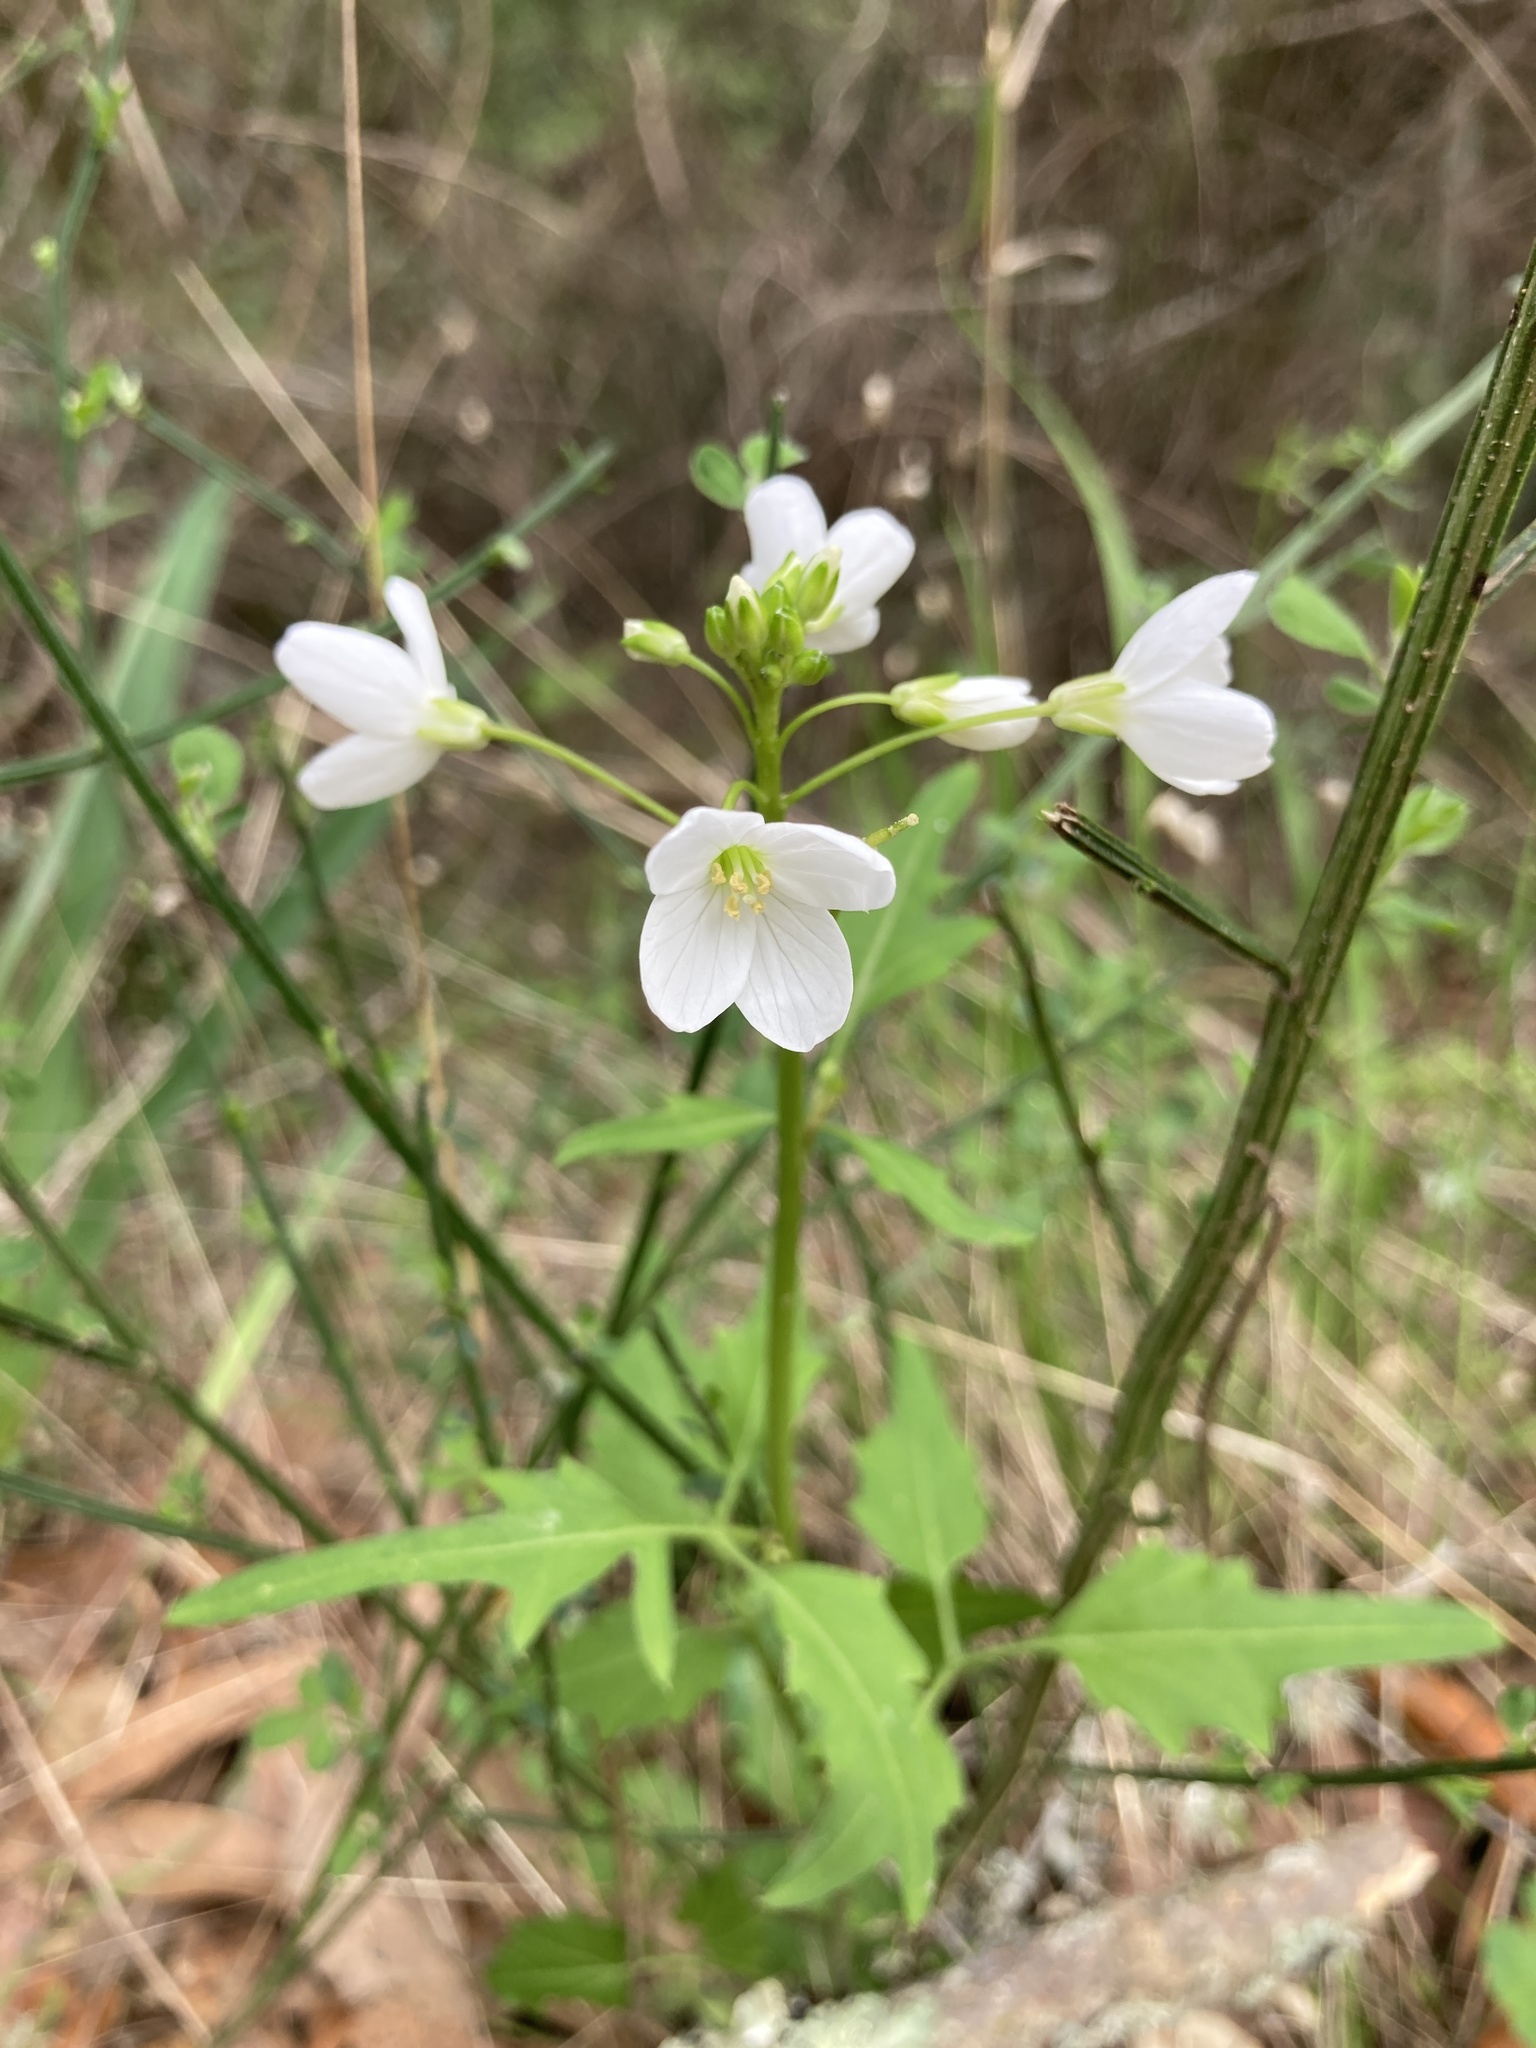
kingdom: Plantae
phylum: Tracheophyta
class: Magnoliopsida
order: Brassicales
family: Brassicaceae
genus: Cardamine
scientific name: Cardamine californica
